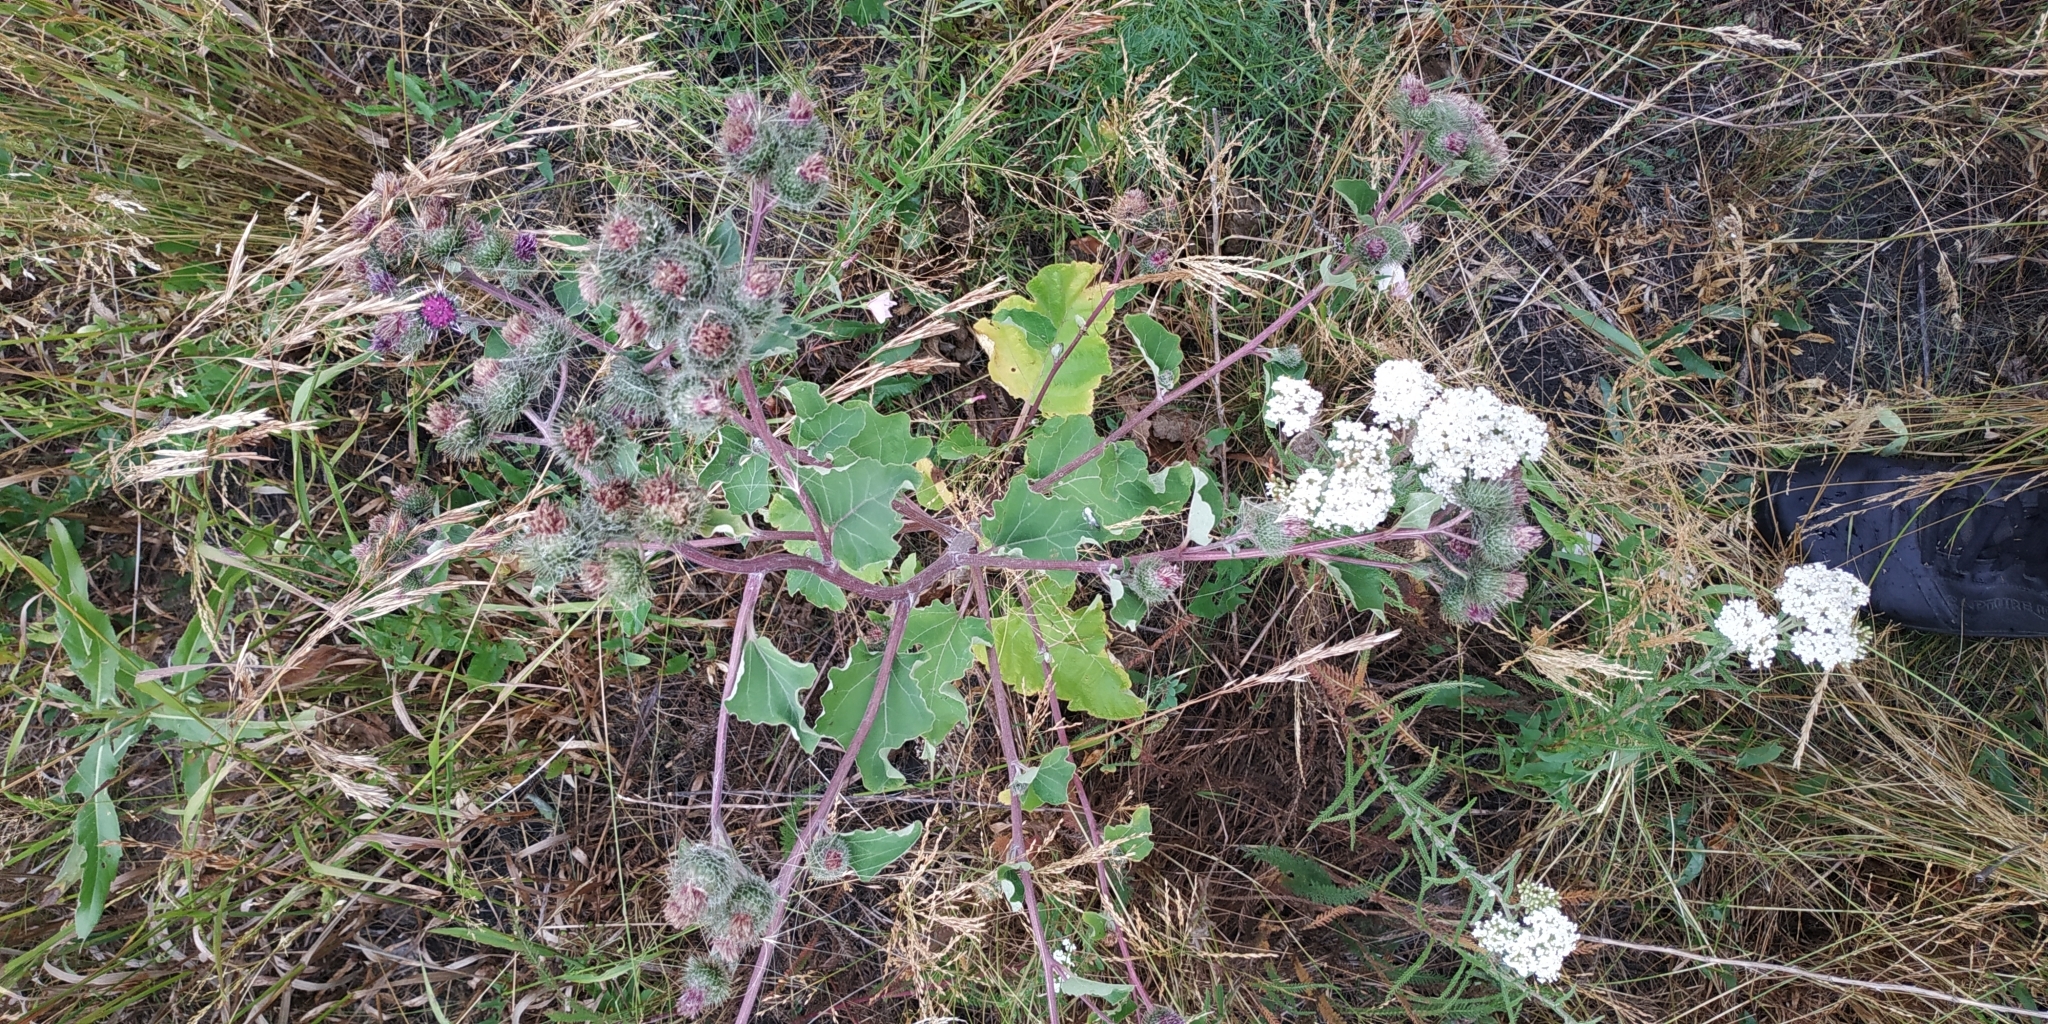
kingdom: Plantae
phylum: Tracheophyta
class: Magnoliopsida
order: Asterales
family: Asteraceae
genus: Arctium
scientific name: Arctium tomentosum
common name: Woolly burdock
